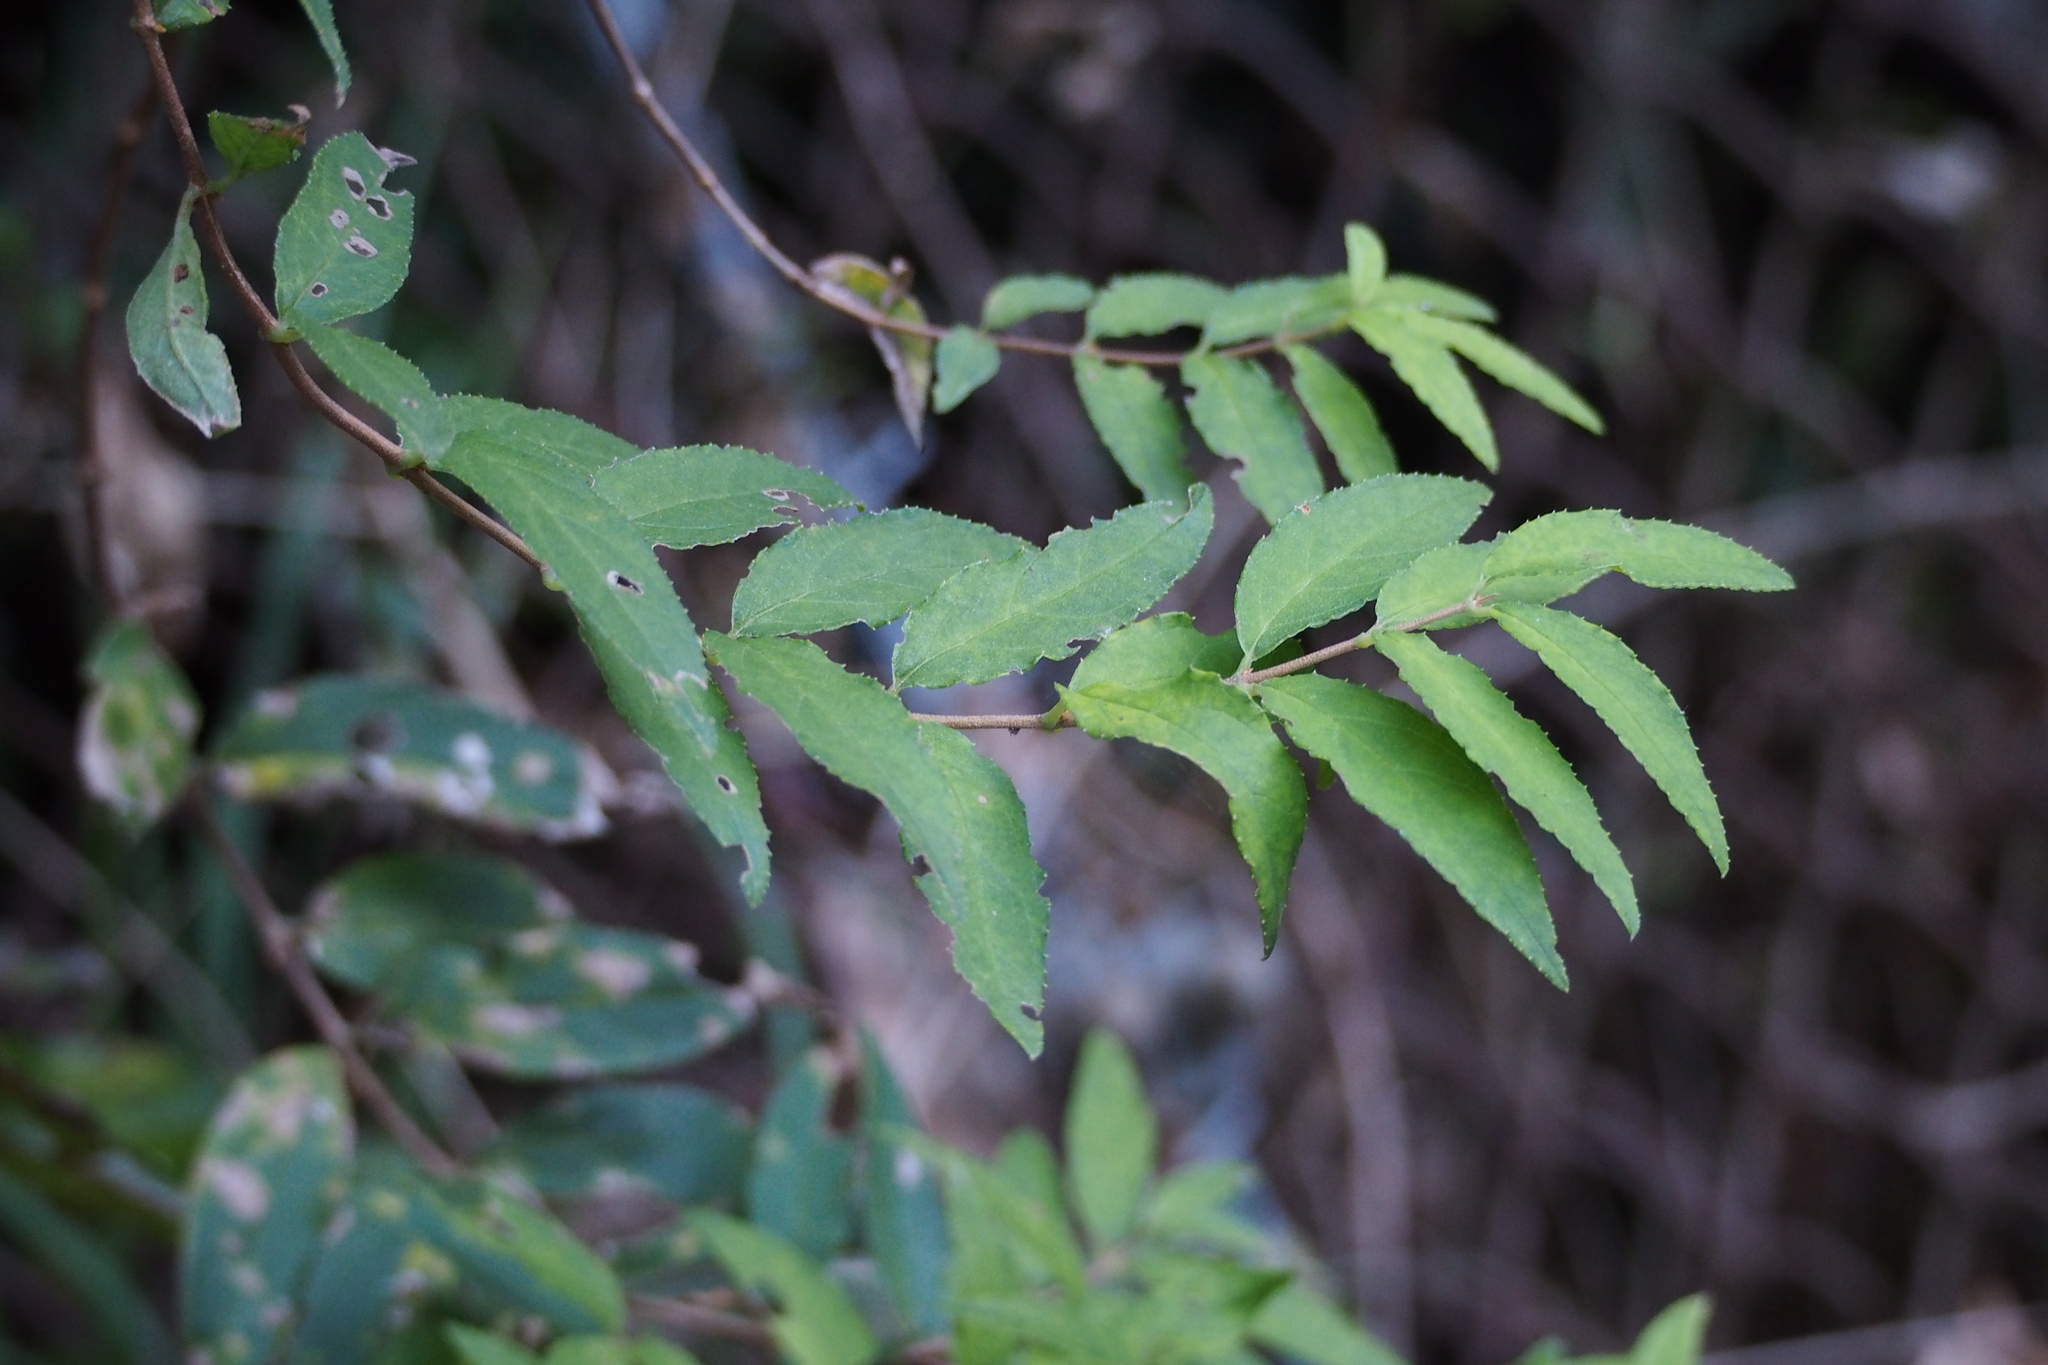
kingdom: Plantae
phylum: Tracheophyta
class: Magnoliopsida
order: Cornales
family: Hydrangeaceae
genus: Deutzia
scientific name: Deutzia crenata
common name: Deutzia
